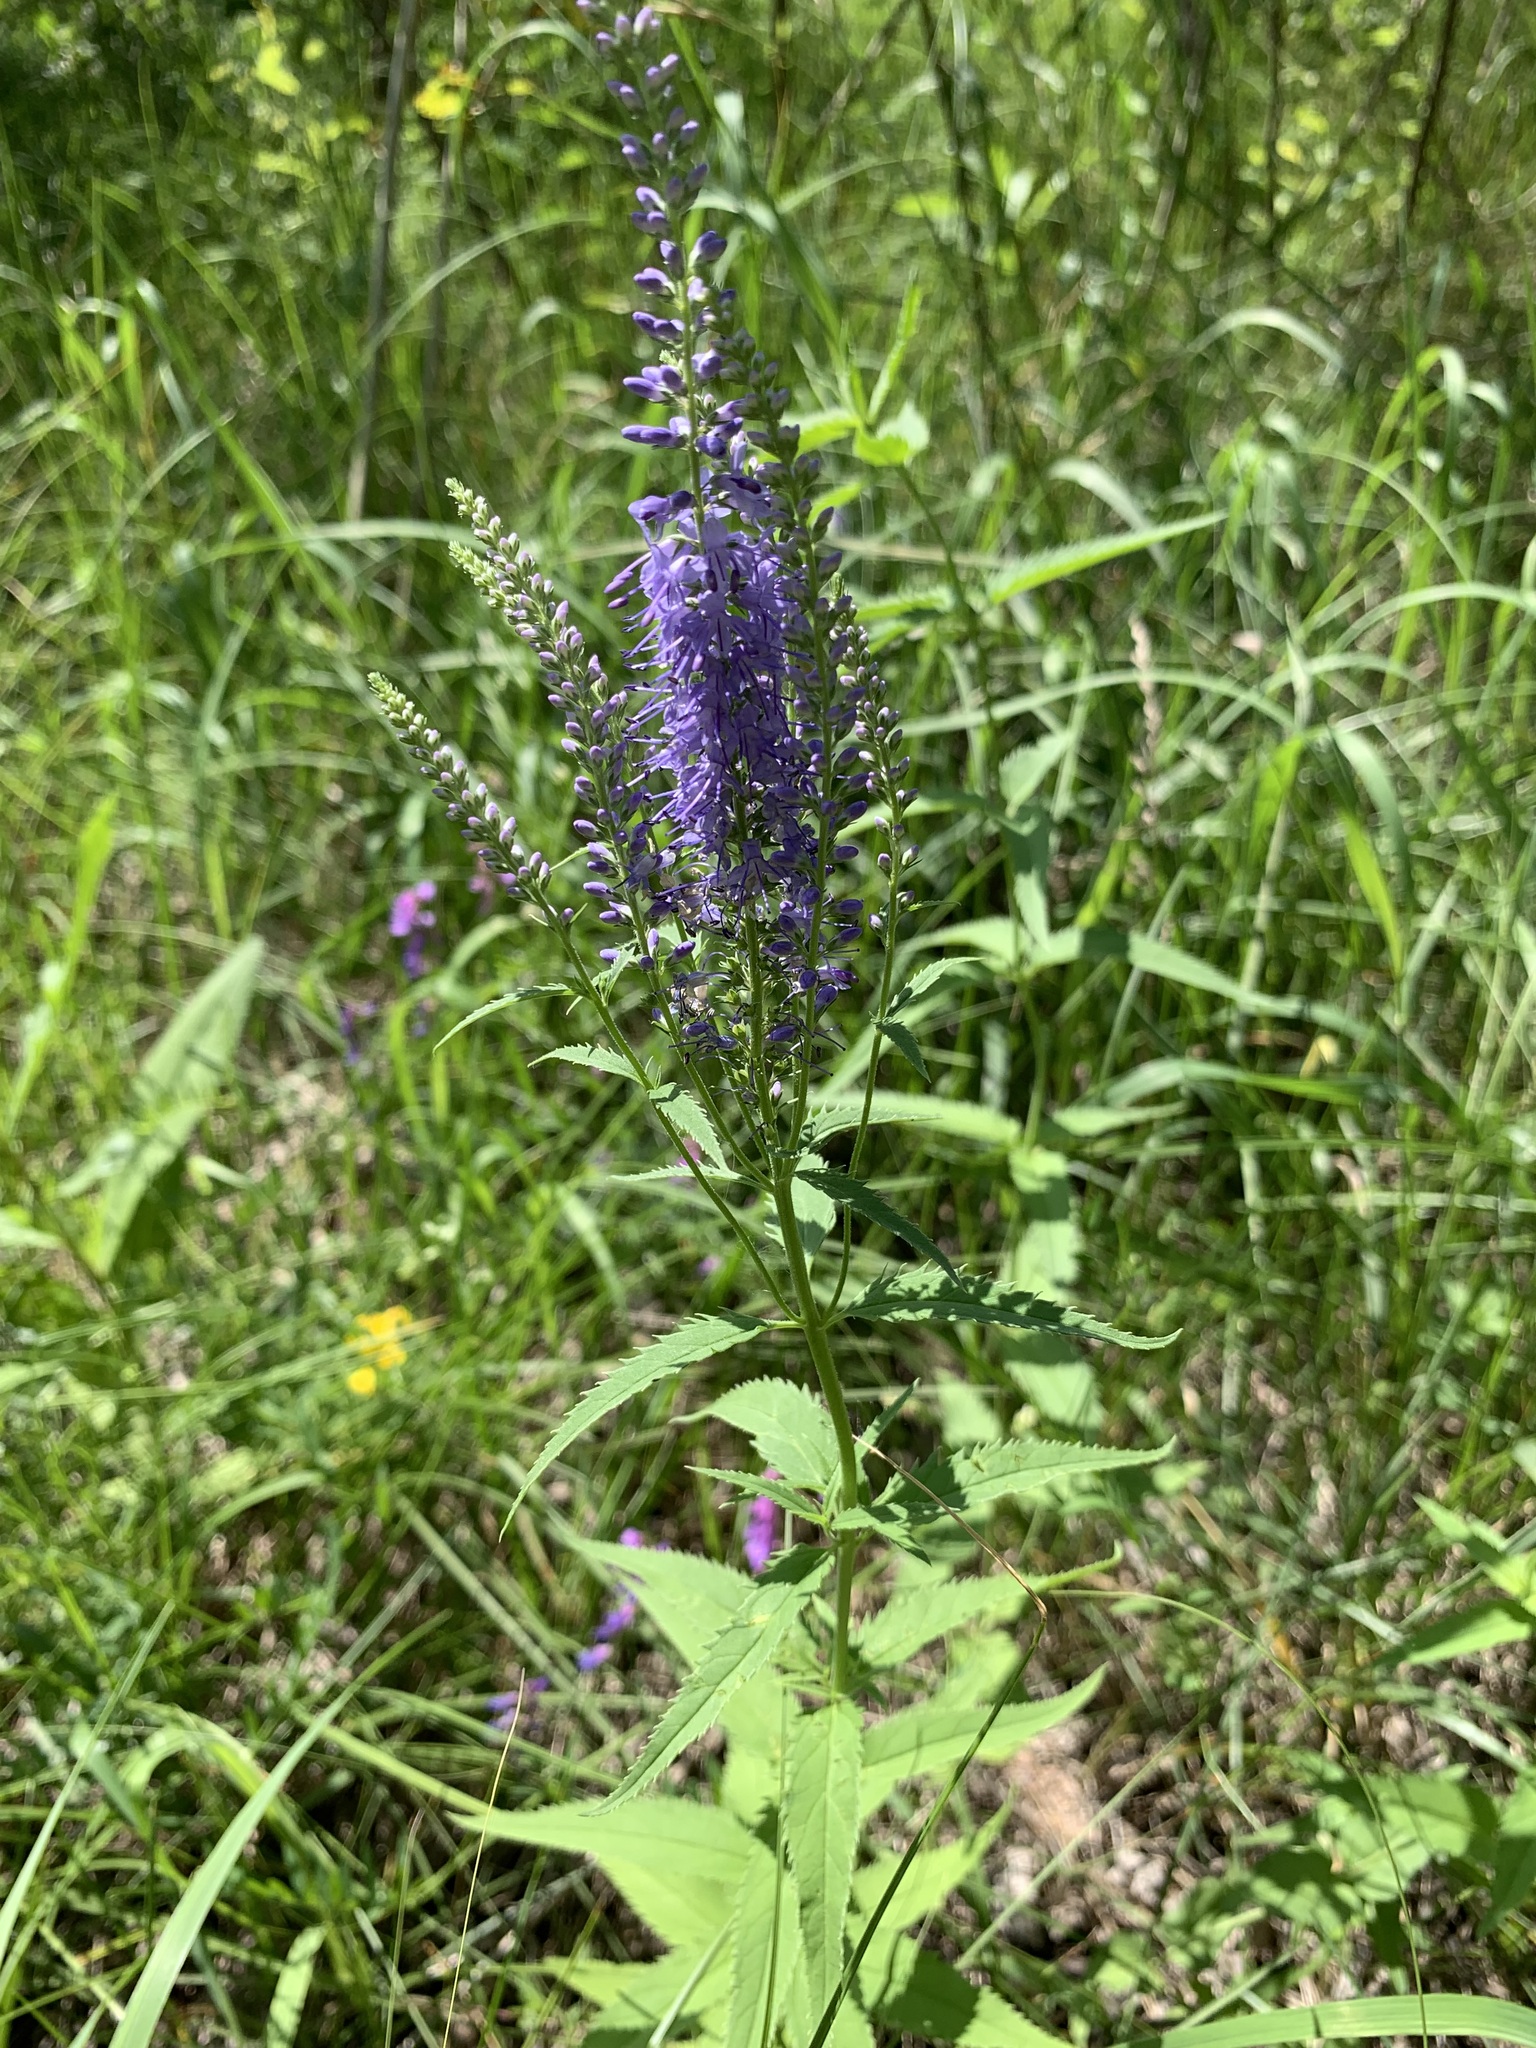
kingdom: Plantae
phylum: Tracheophyta
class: Magnoliopsida
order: Lamiales
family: Plantaginaceae
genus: Veronica
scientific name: Veronica longifolia
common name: Garden speedwell
